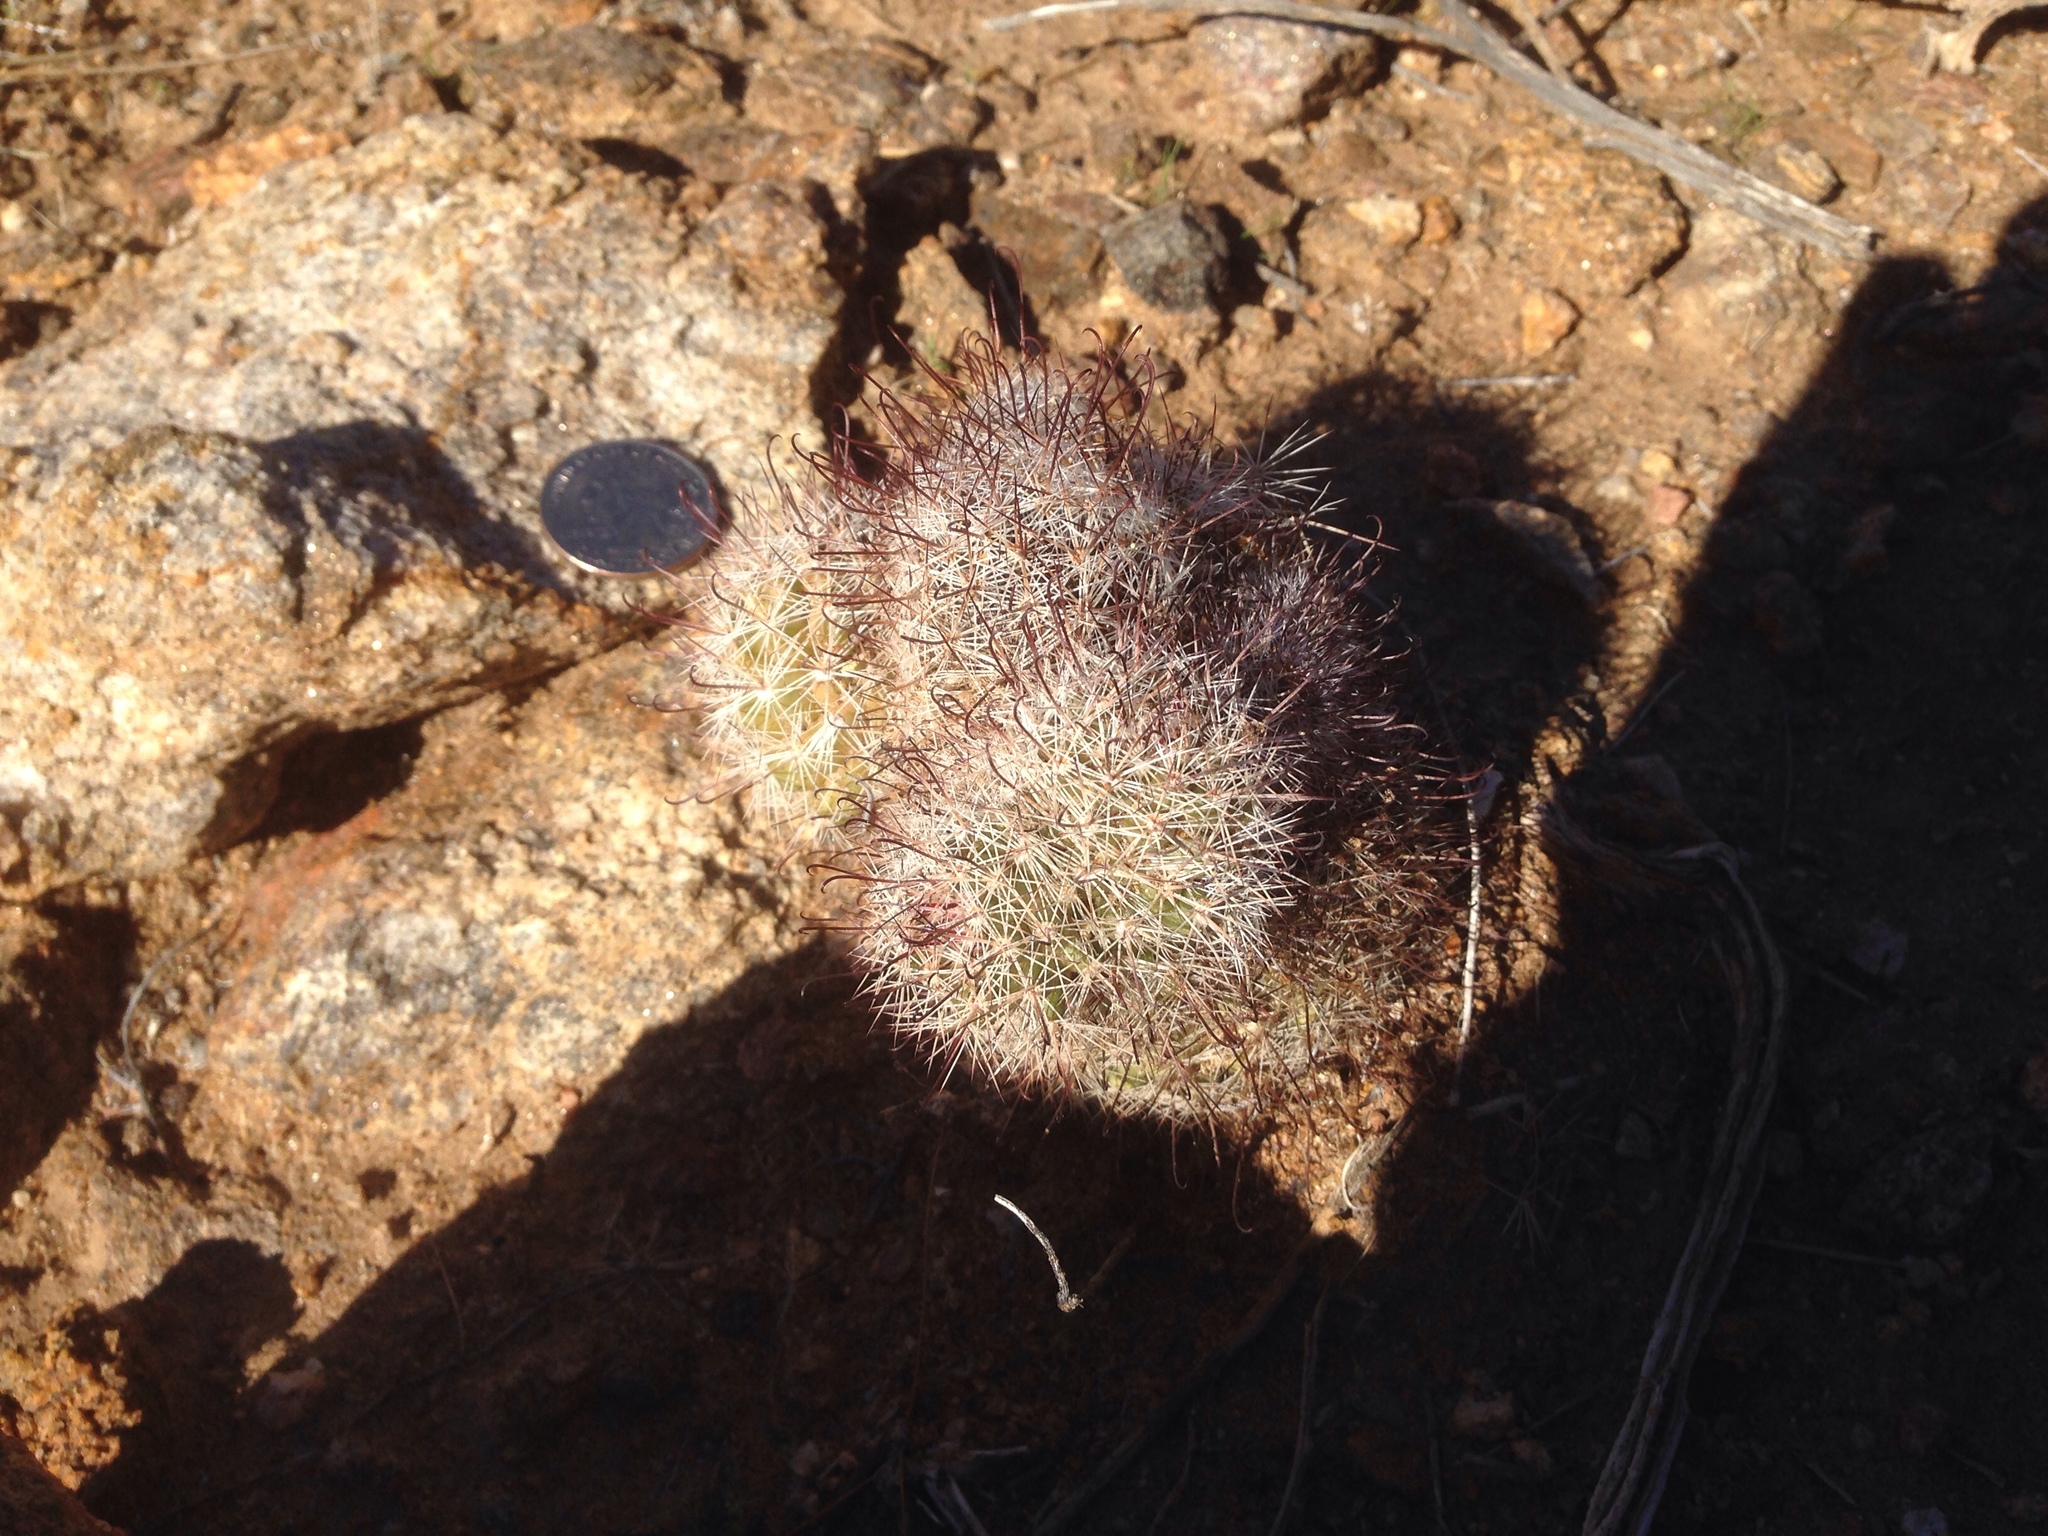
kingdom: Plantae
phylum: Tracheophyta
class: Magnoliopsida
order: Caryophyllales
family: Cactaceae
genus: Cochemiea
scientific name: Cochemiea dioica
